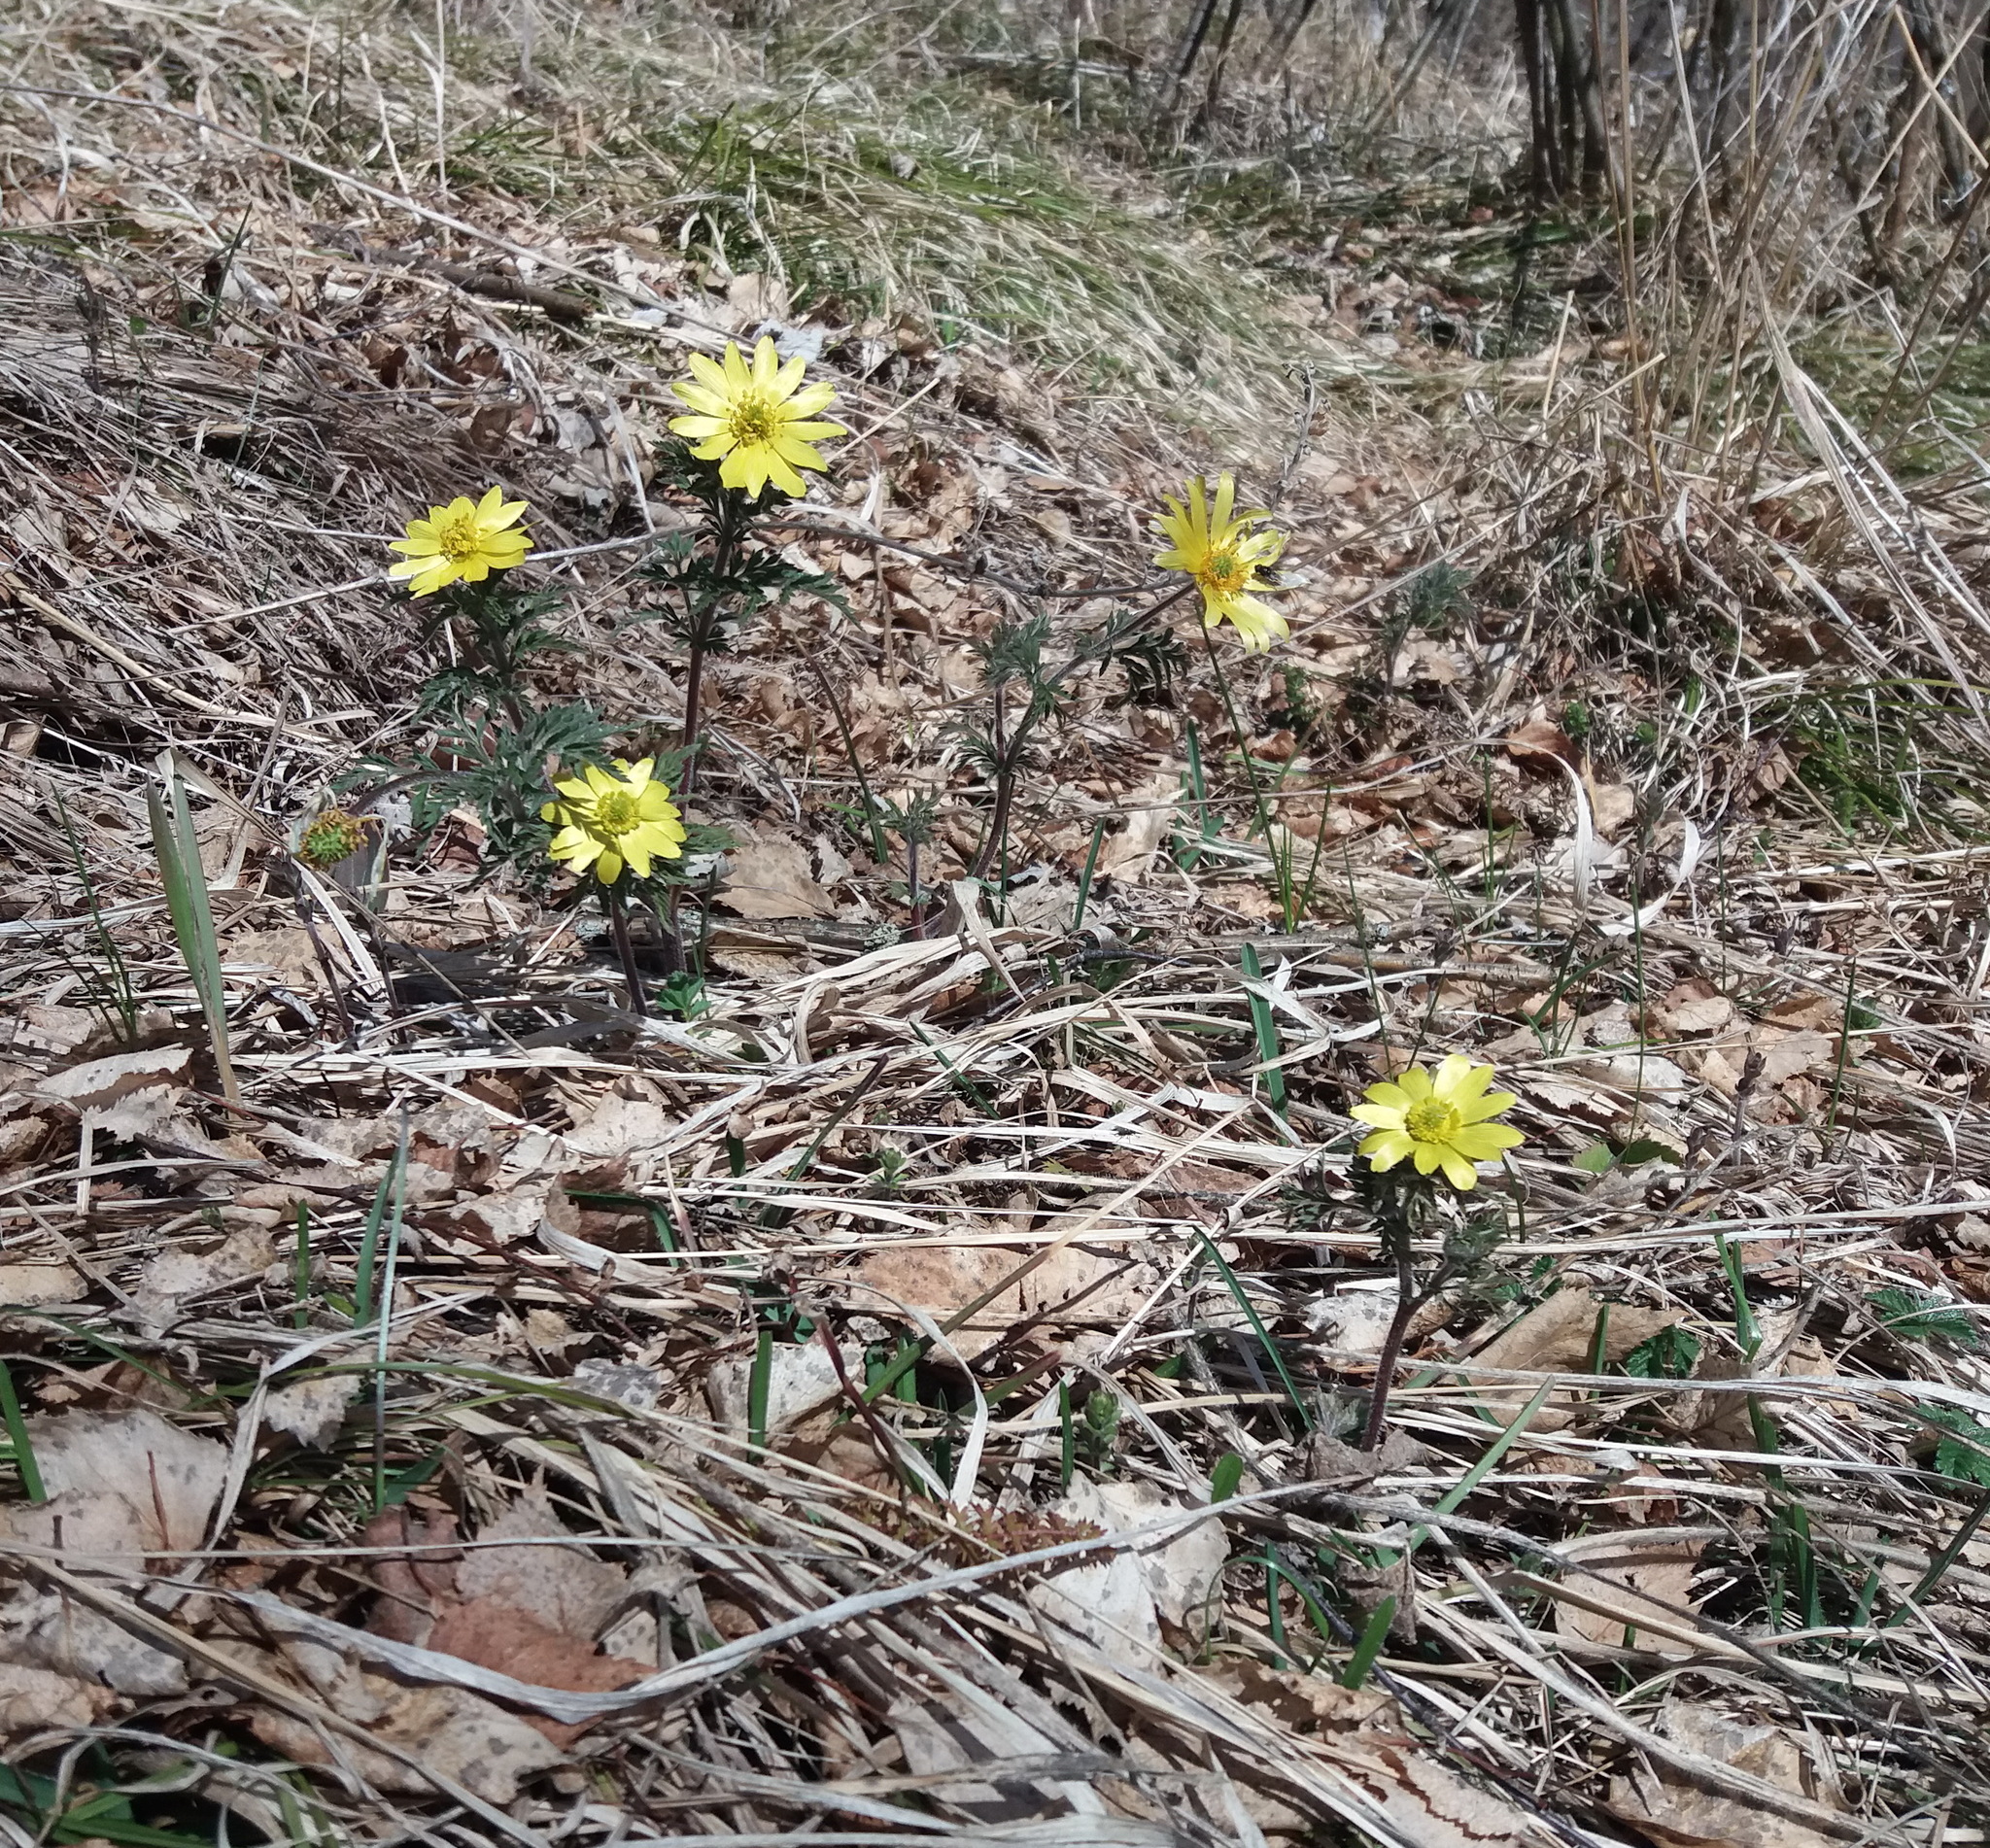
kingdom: Plantae
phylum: Tracheophyta
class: Magnoliopsida
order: Ranunculales
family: Ranunculaceae
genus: Adonis
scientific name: Adonis villosa
